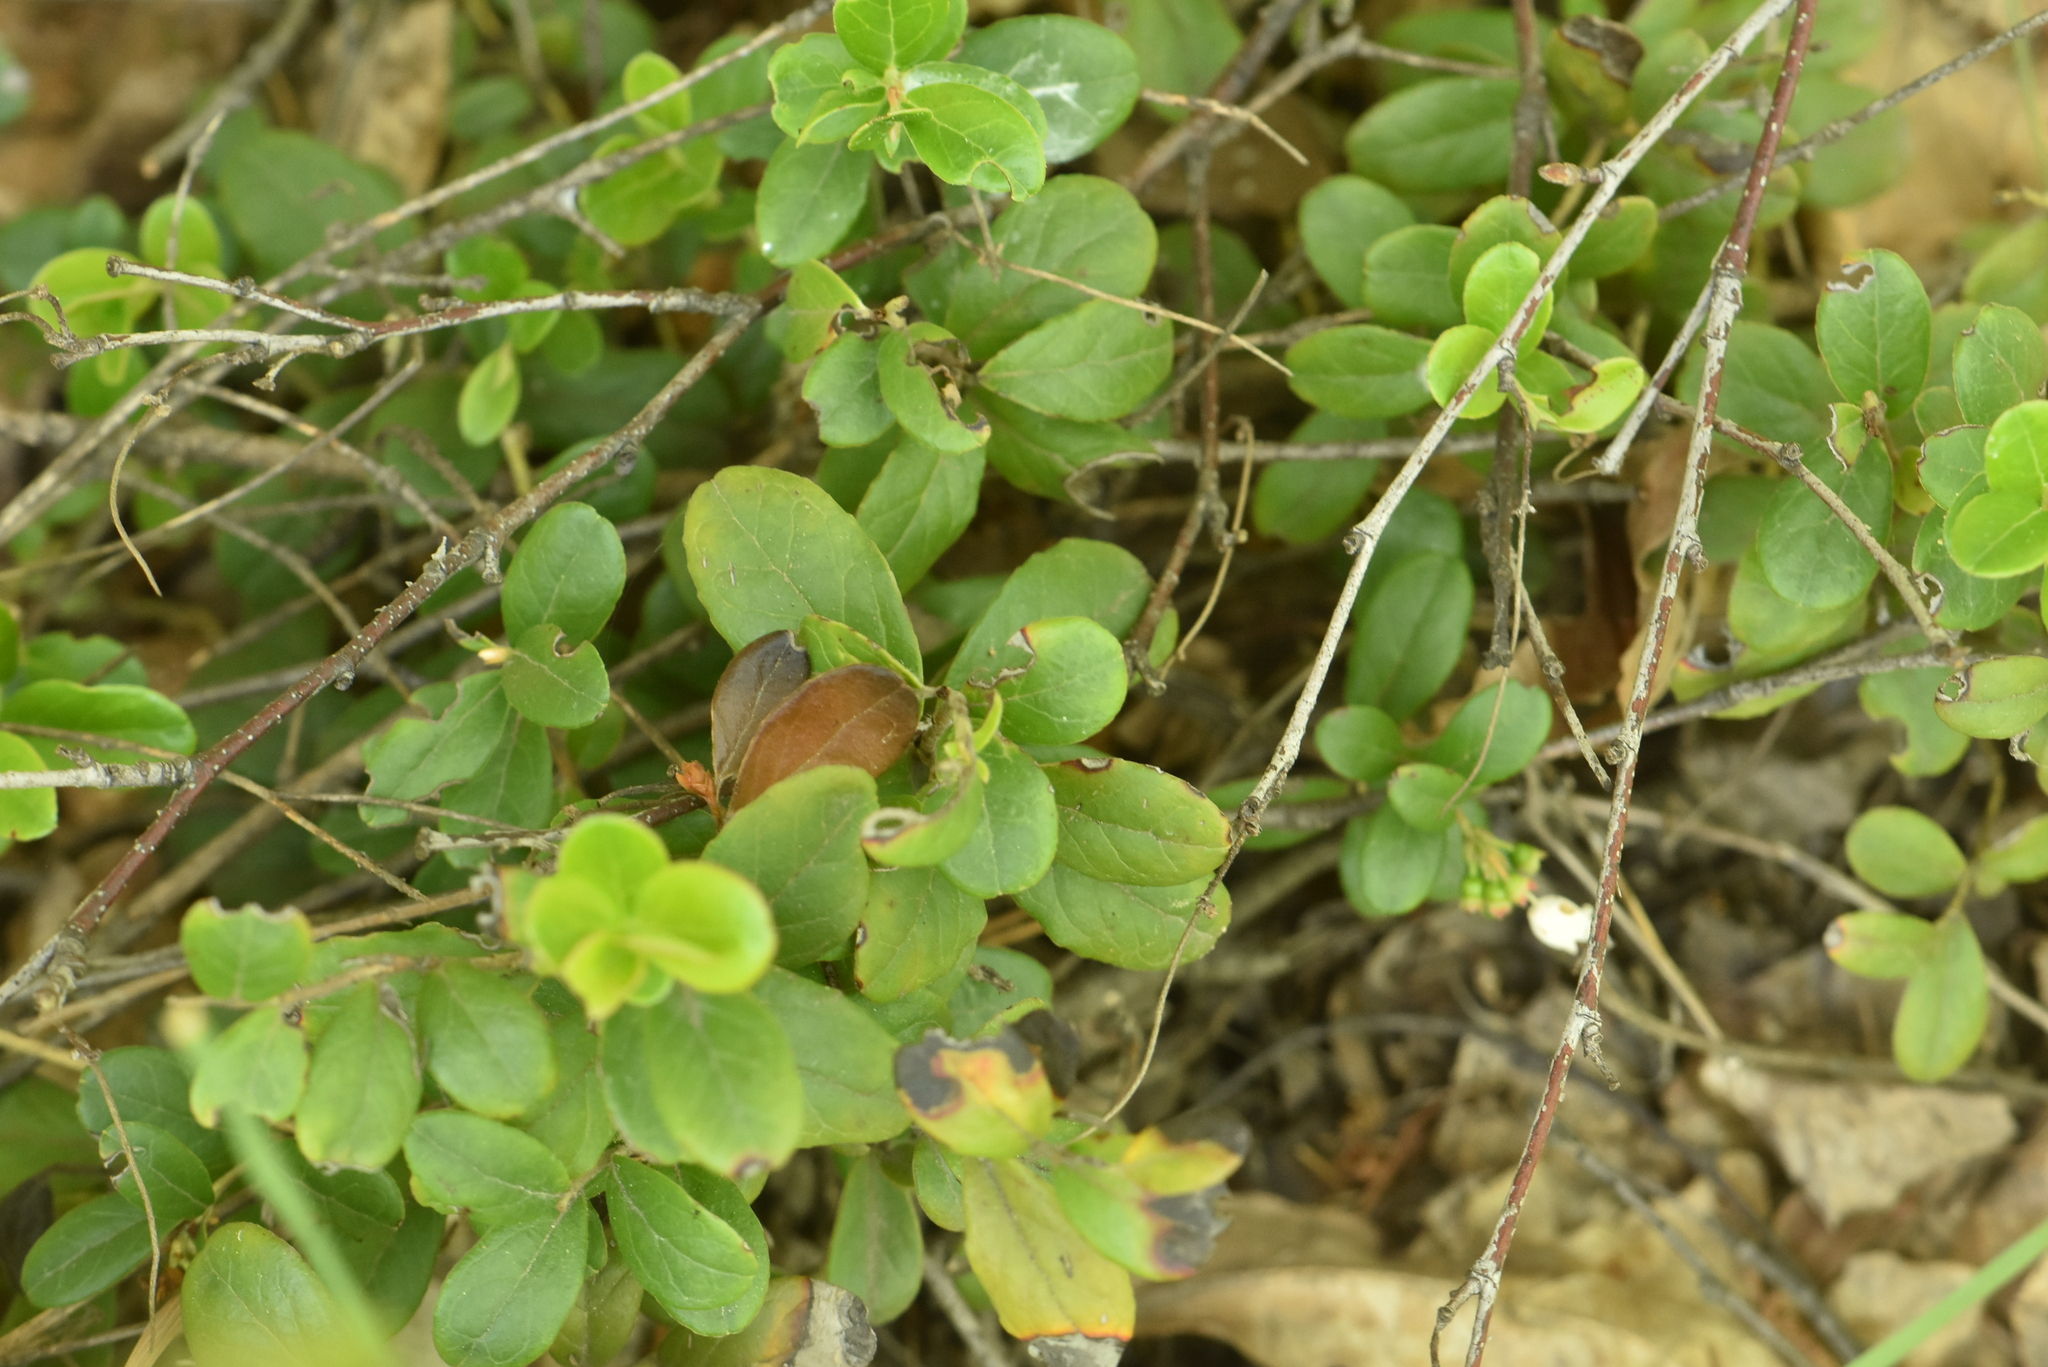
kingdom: Plantae
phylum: Tracheophyta
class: Magnoliopsida
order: Ericales
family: Ericaceae
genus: Vaccinium
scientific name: Vaccinium vitis-idaea
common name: Cowberry
